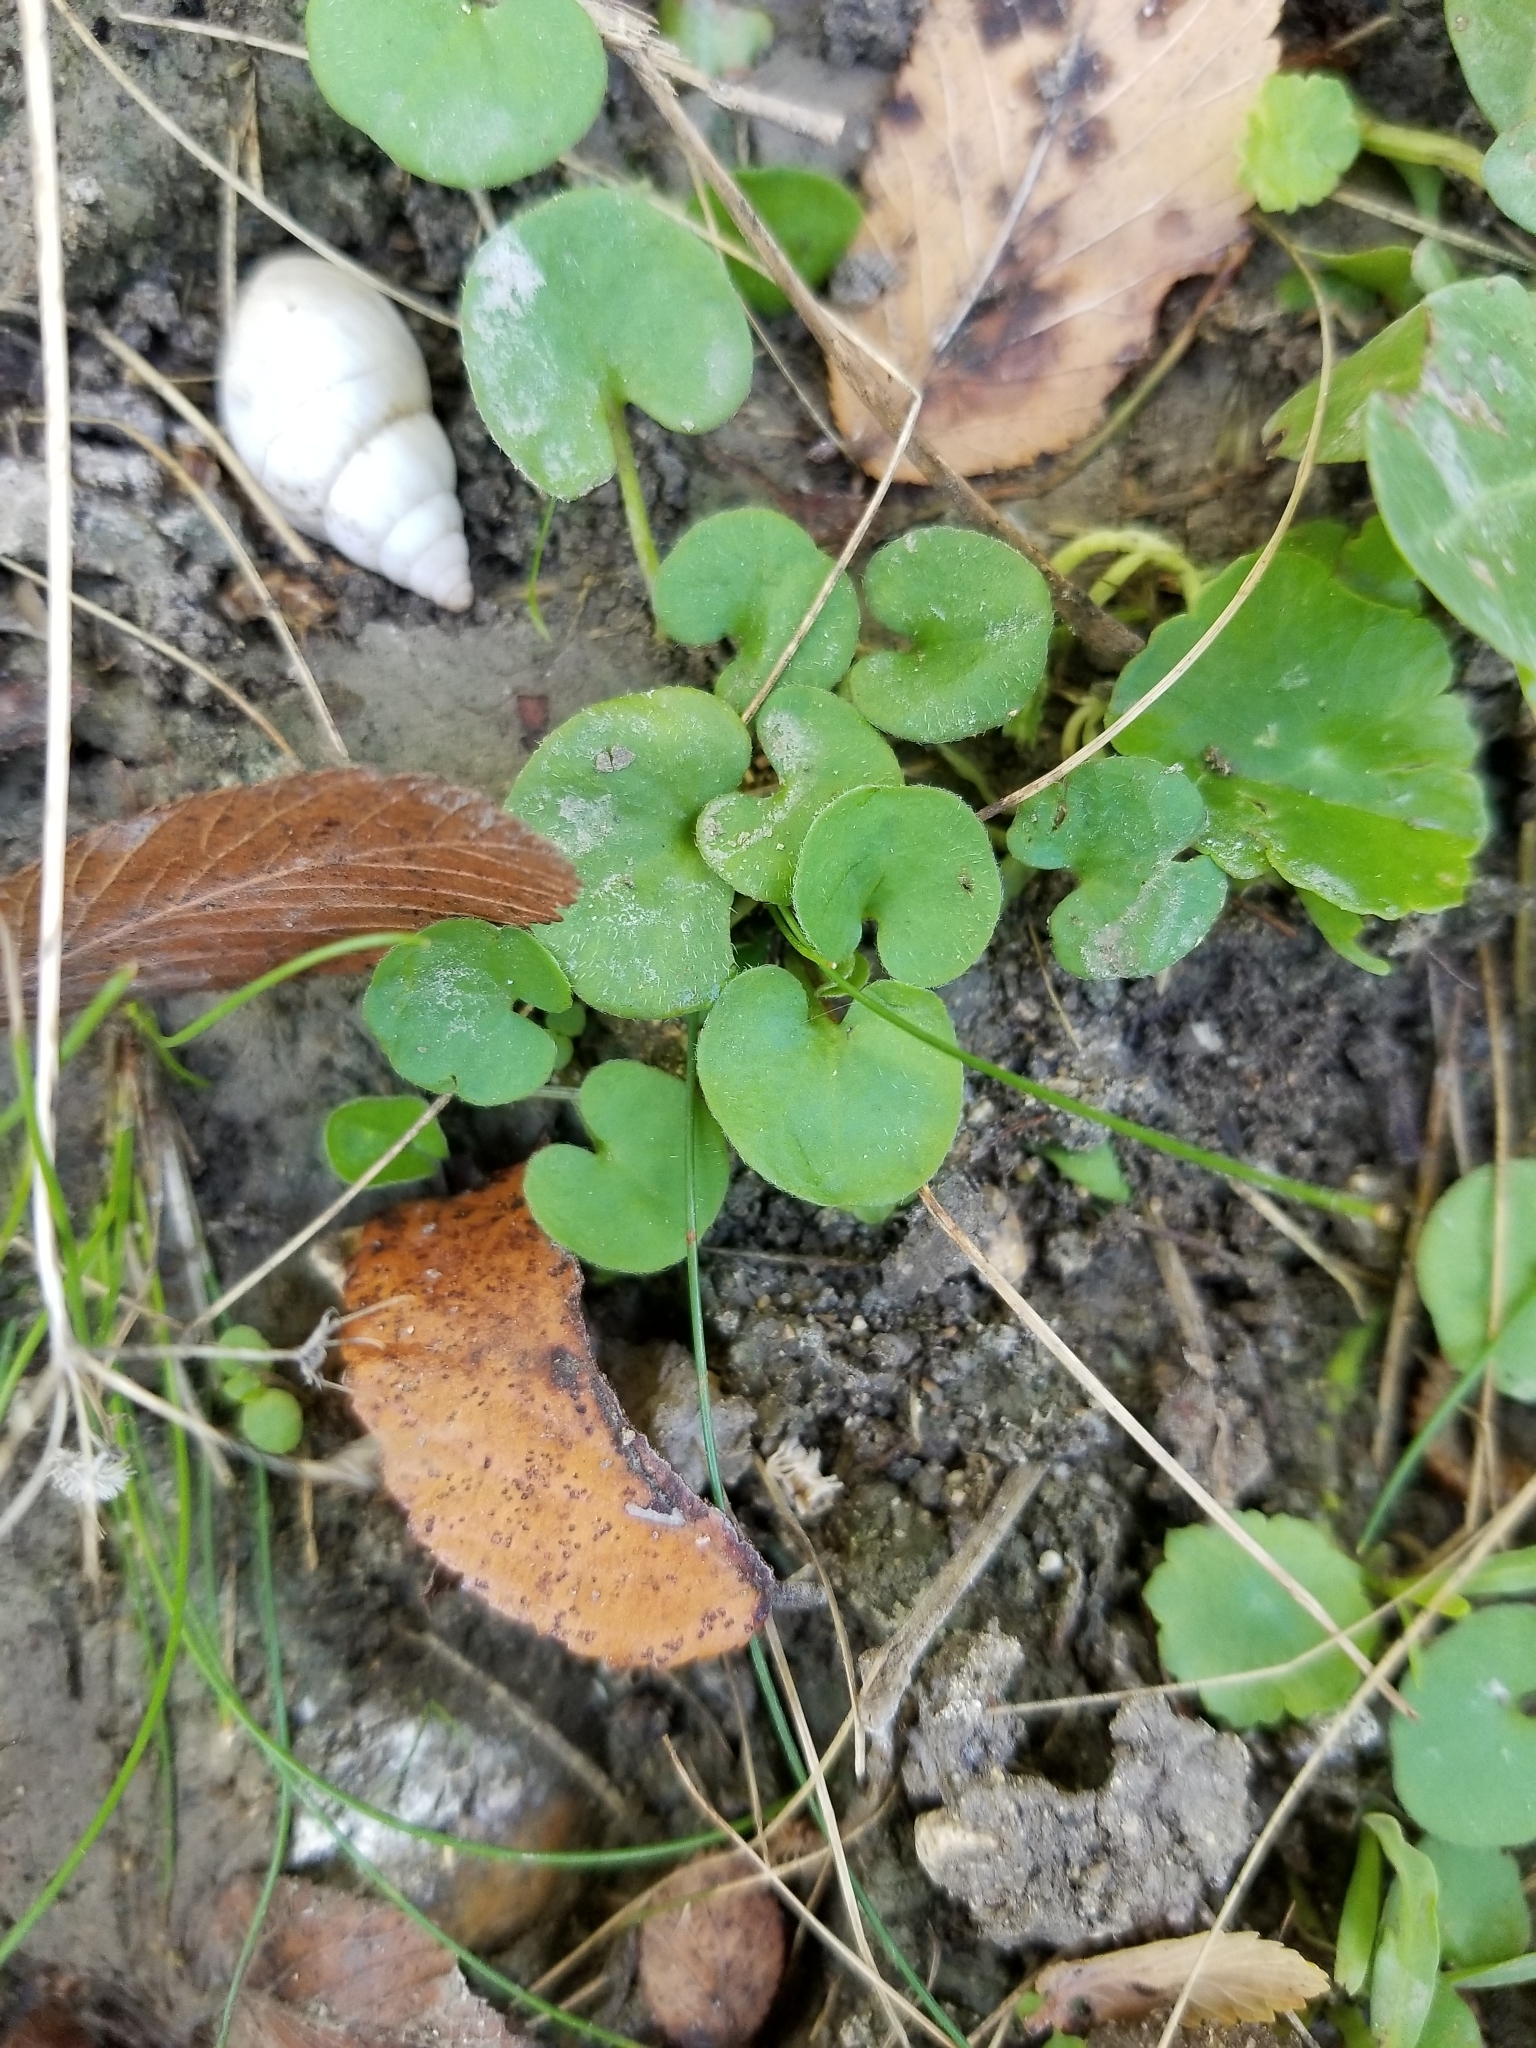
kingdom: Plantae
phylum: Tracheophyta
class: Magnoliopsida
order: Solanales
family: Convolvulaceae
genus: Dichondra
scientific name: Dichondra carolinensis
